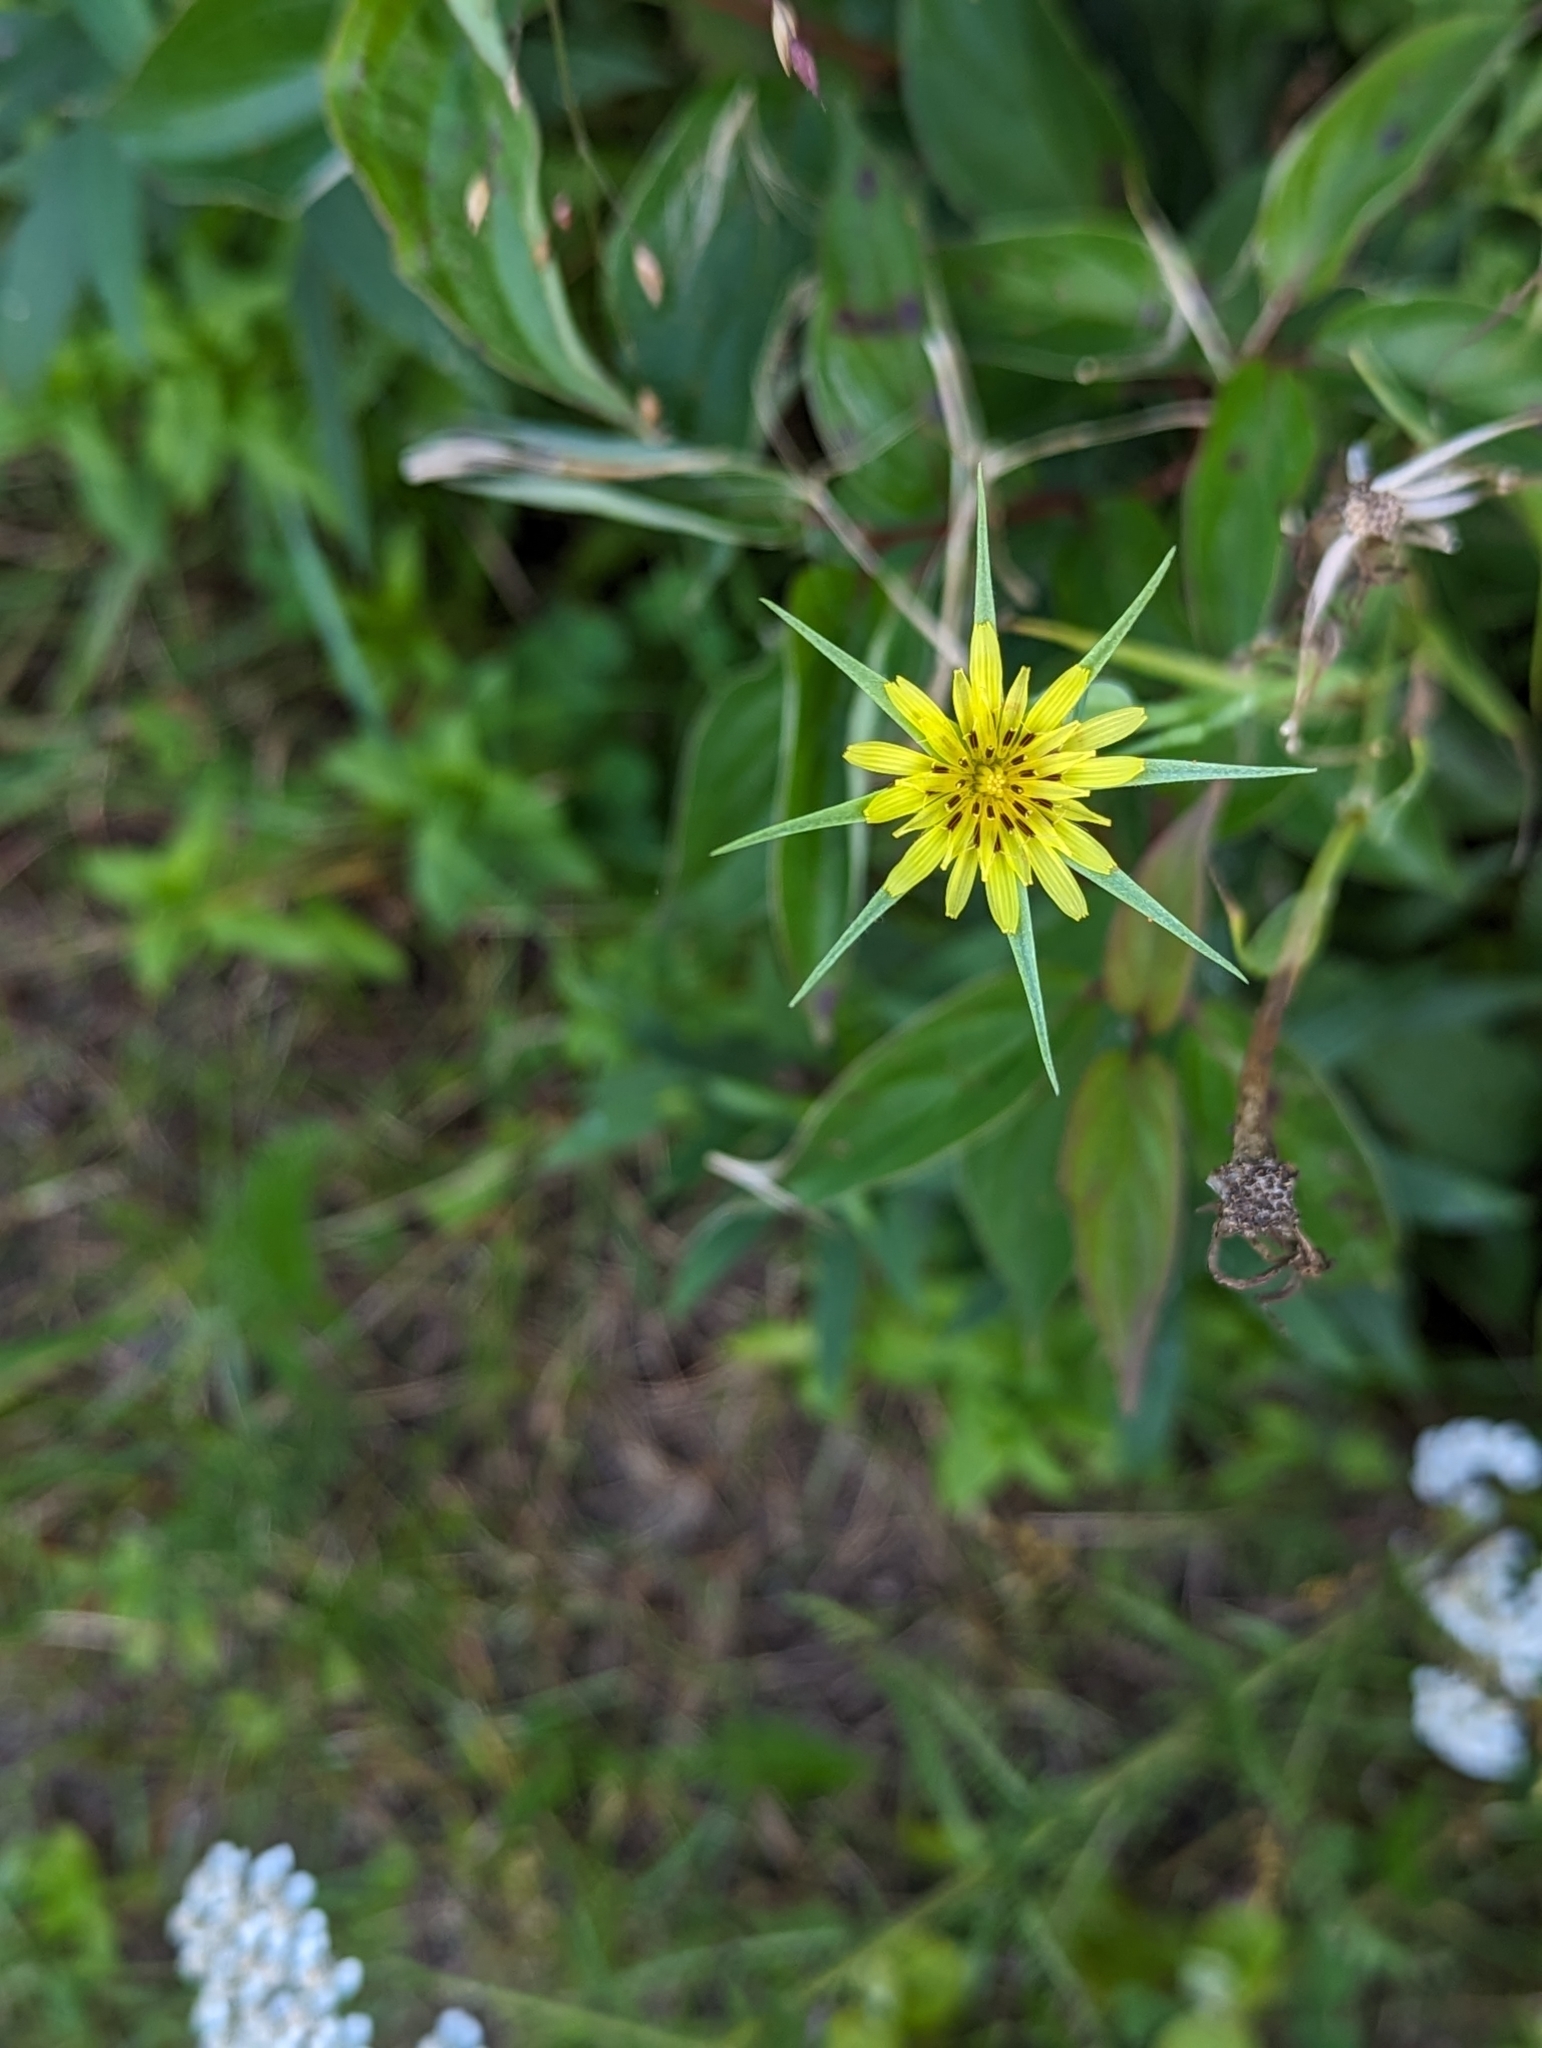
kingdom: Plantae
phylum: Tracheophyta
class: Magnoliopsida
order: Asterales
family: Asteraceae
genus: Tragopogon
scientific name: Tragopogon dubius
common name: Yellow salsify
